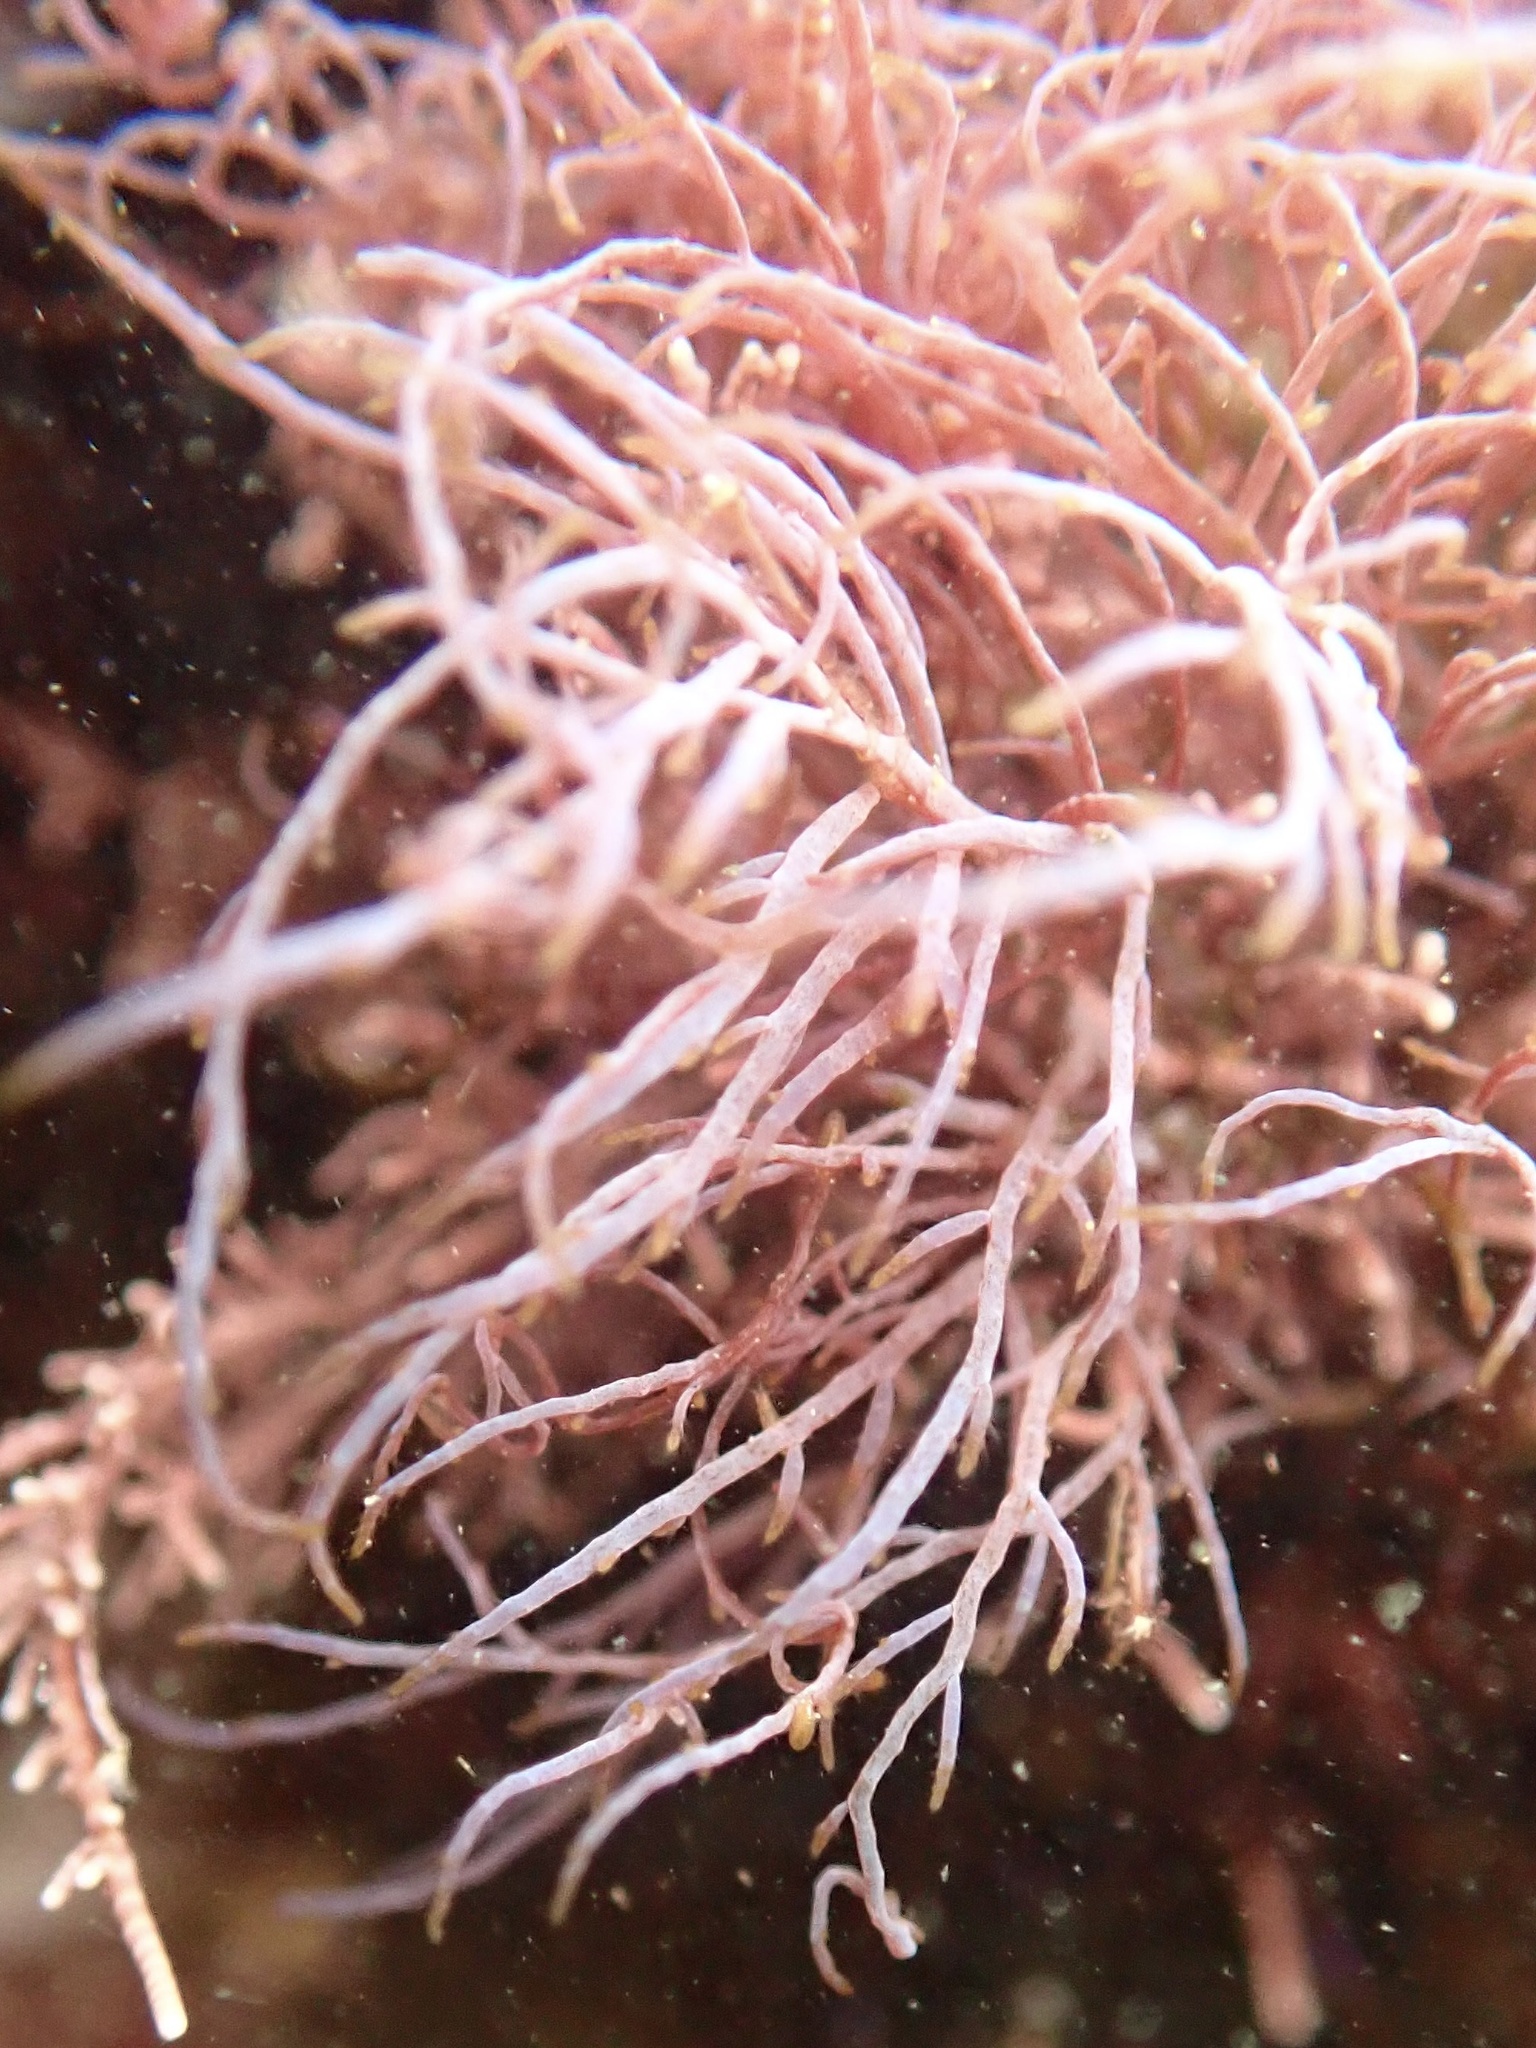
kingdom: Plantae
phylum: Rhodophyta
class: Florideophyceae
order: Ceramiales
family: Rhodomelaceae
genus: Chondria
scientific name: Chondria acrorhizophora
